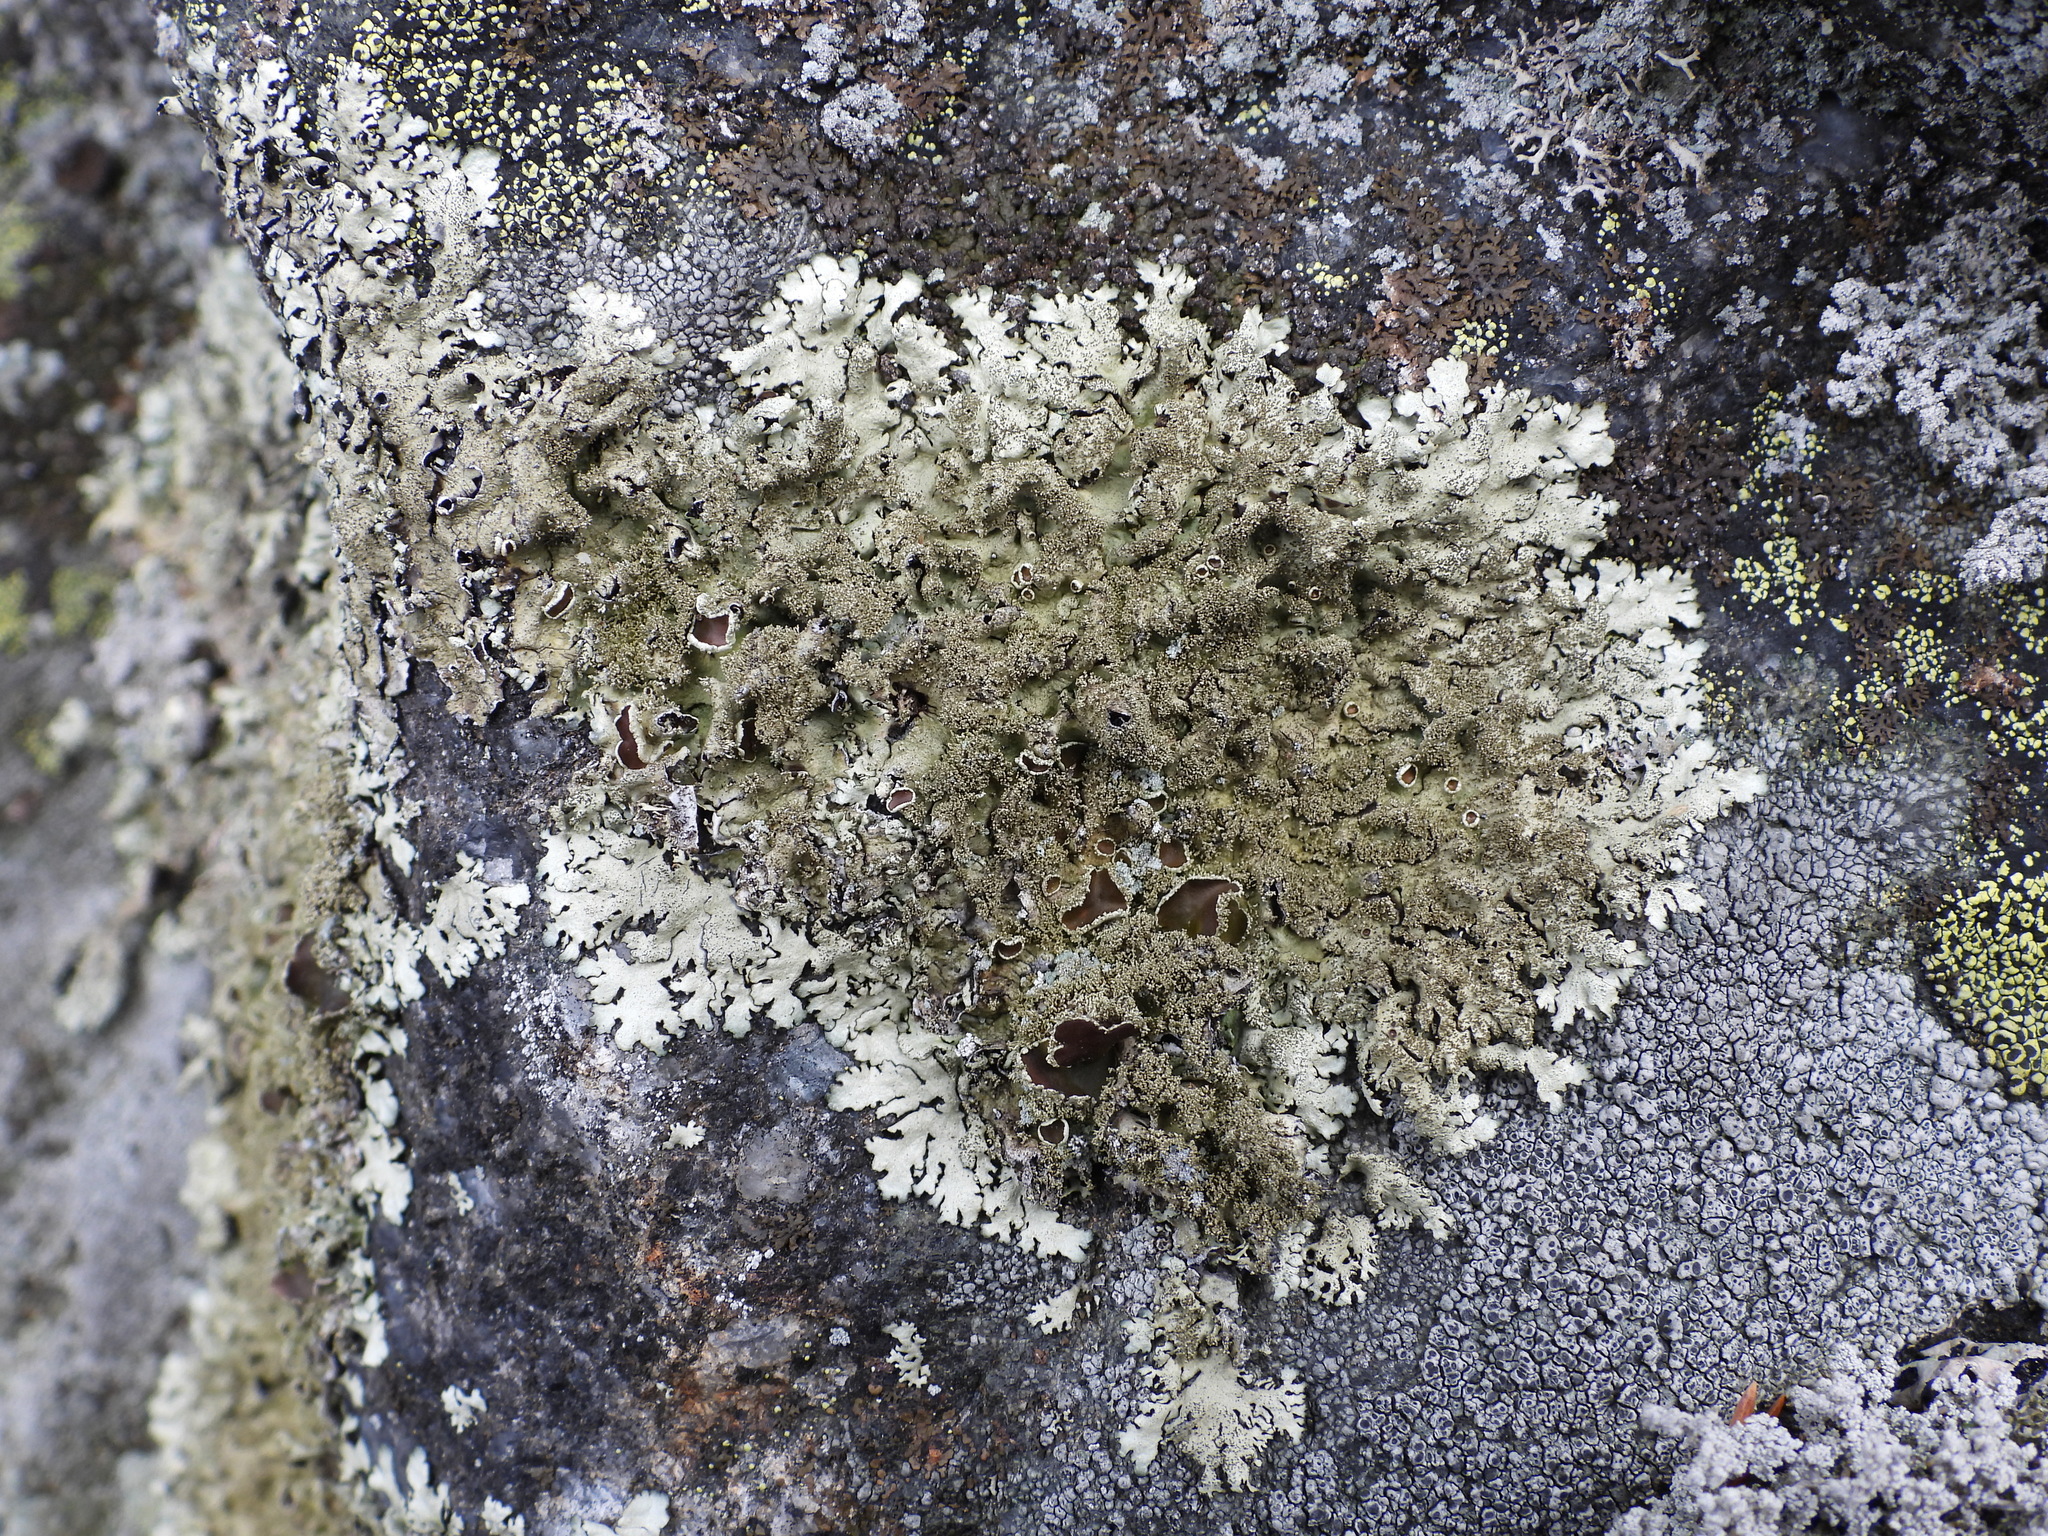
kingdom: Fungi
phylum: Ascomycota
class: Lecanoromycetes
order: Lecanorales
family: Parmeliaceae
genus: Xanthoparmelia
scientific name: Xanthoparmelia conspersa
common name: Peppered rock shield
